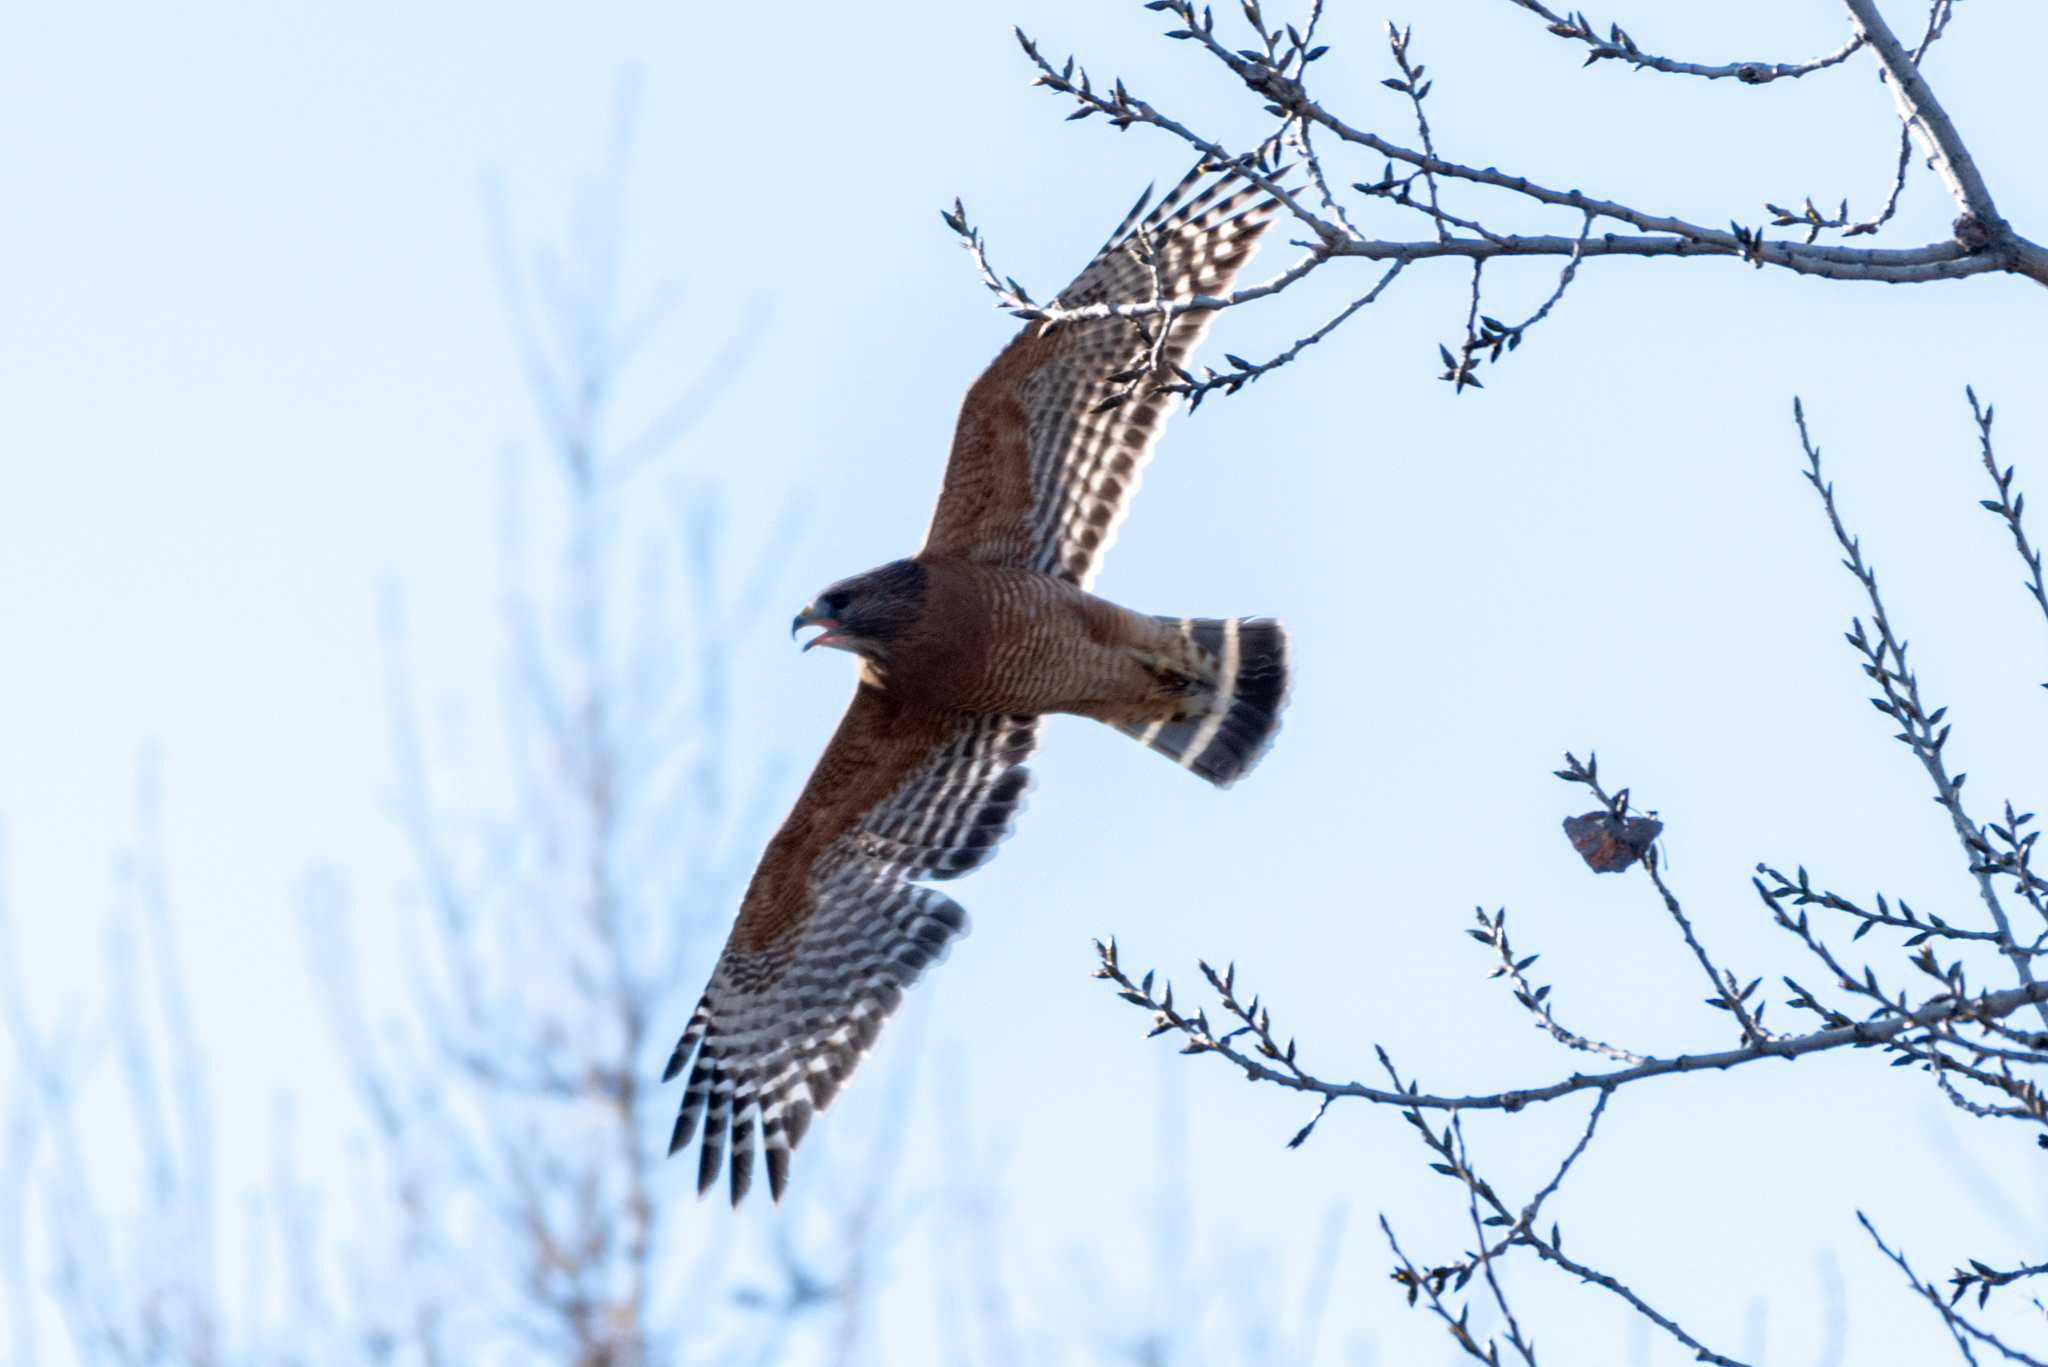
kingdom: Animalia
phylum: Chordata
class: Aves
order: Accipitriformes
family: Accipitridae
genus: Buteo
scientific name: Buteo lineatus
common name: Red-shouldered hawk
